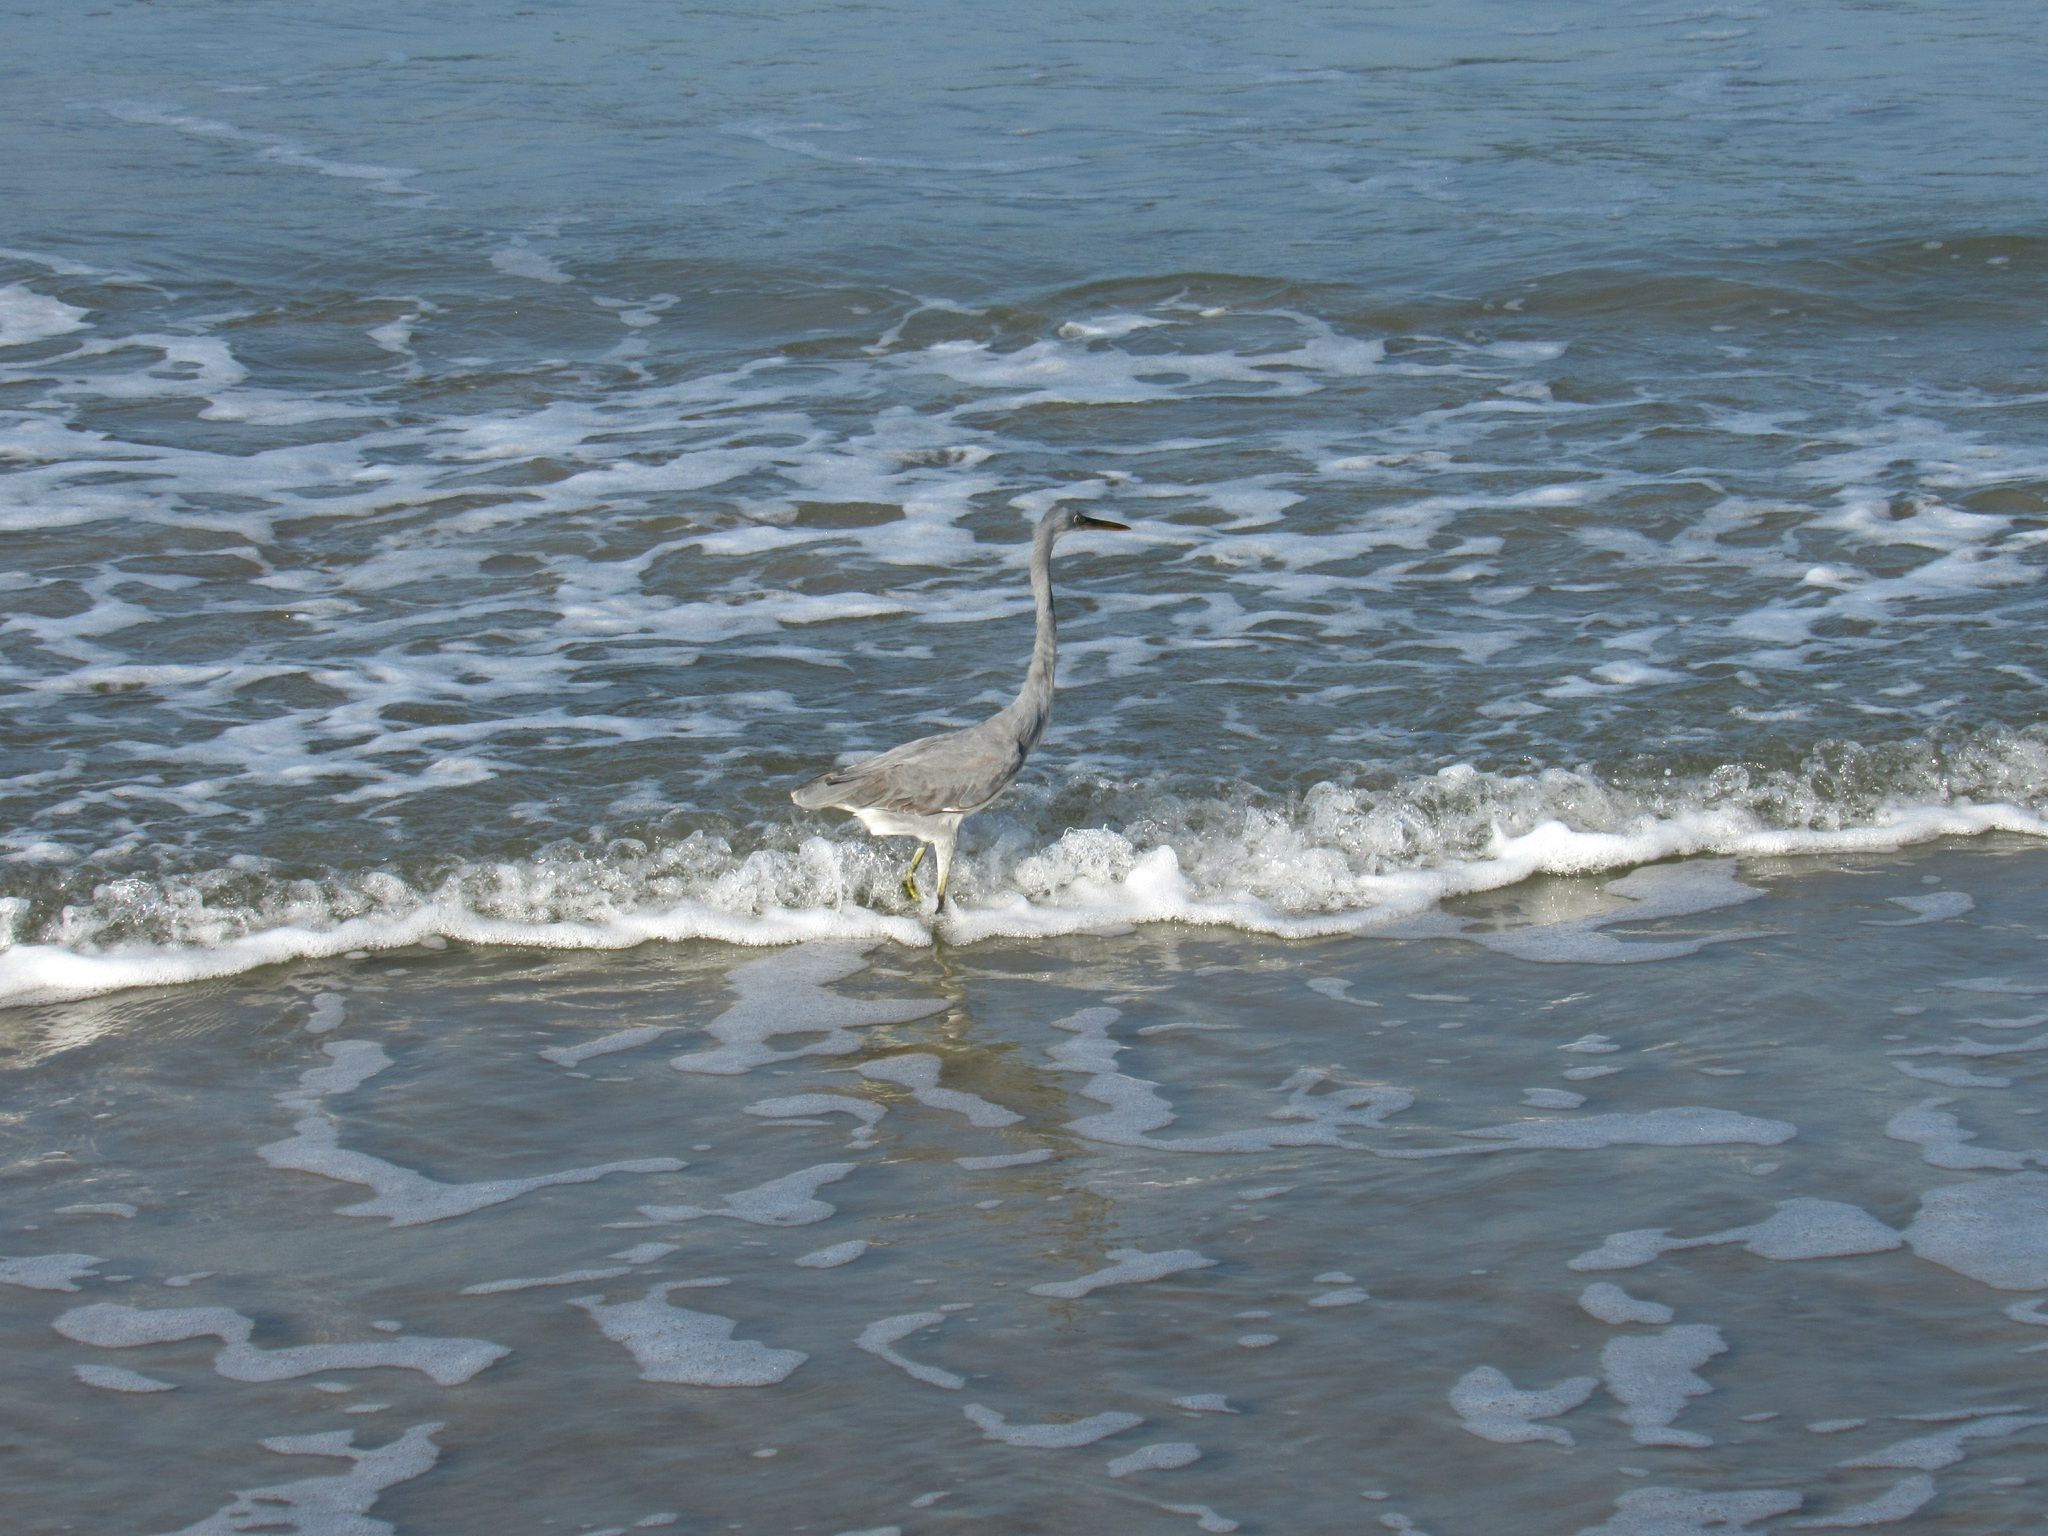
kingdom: Animalia
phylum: Chordata
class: Aves
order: Pelecaniformes
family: Ardeidae
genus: Egretta
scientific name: Egretta gularis
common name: Western reef-heron
